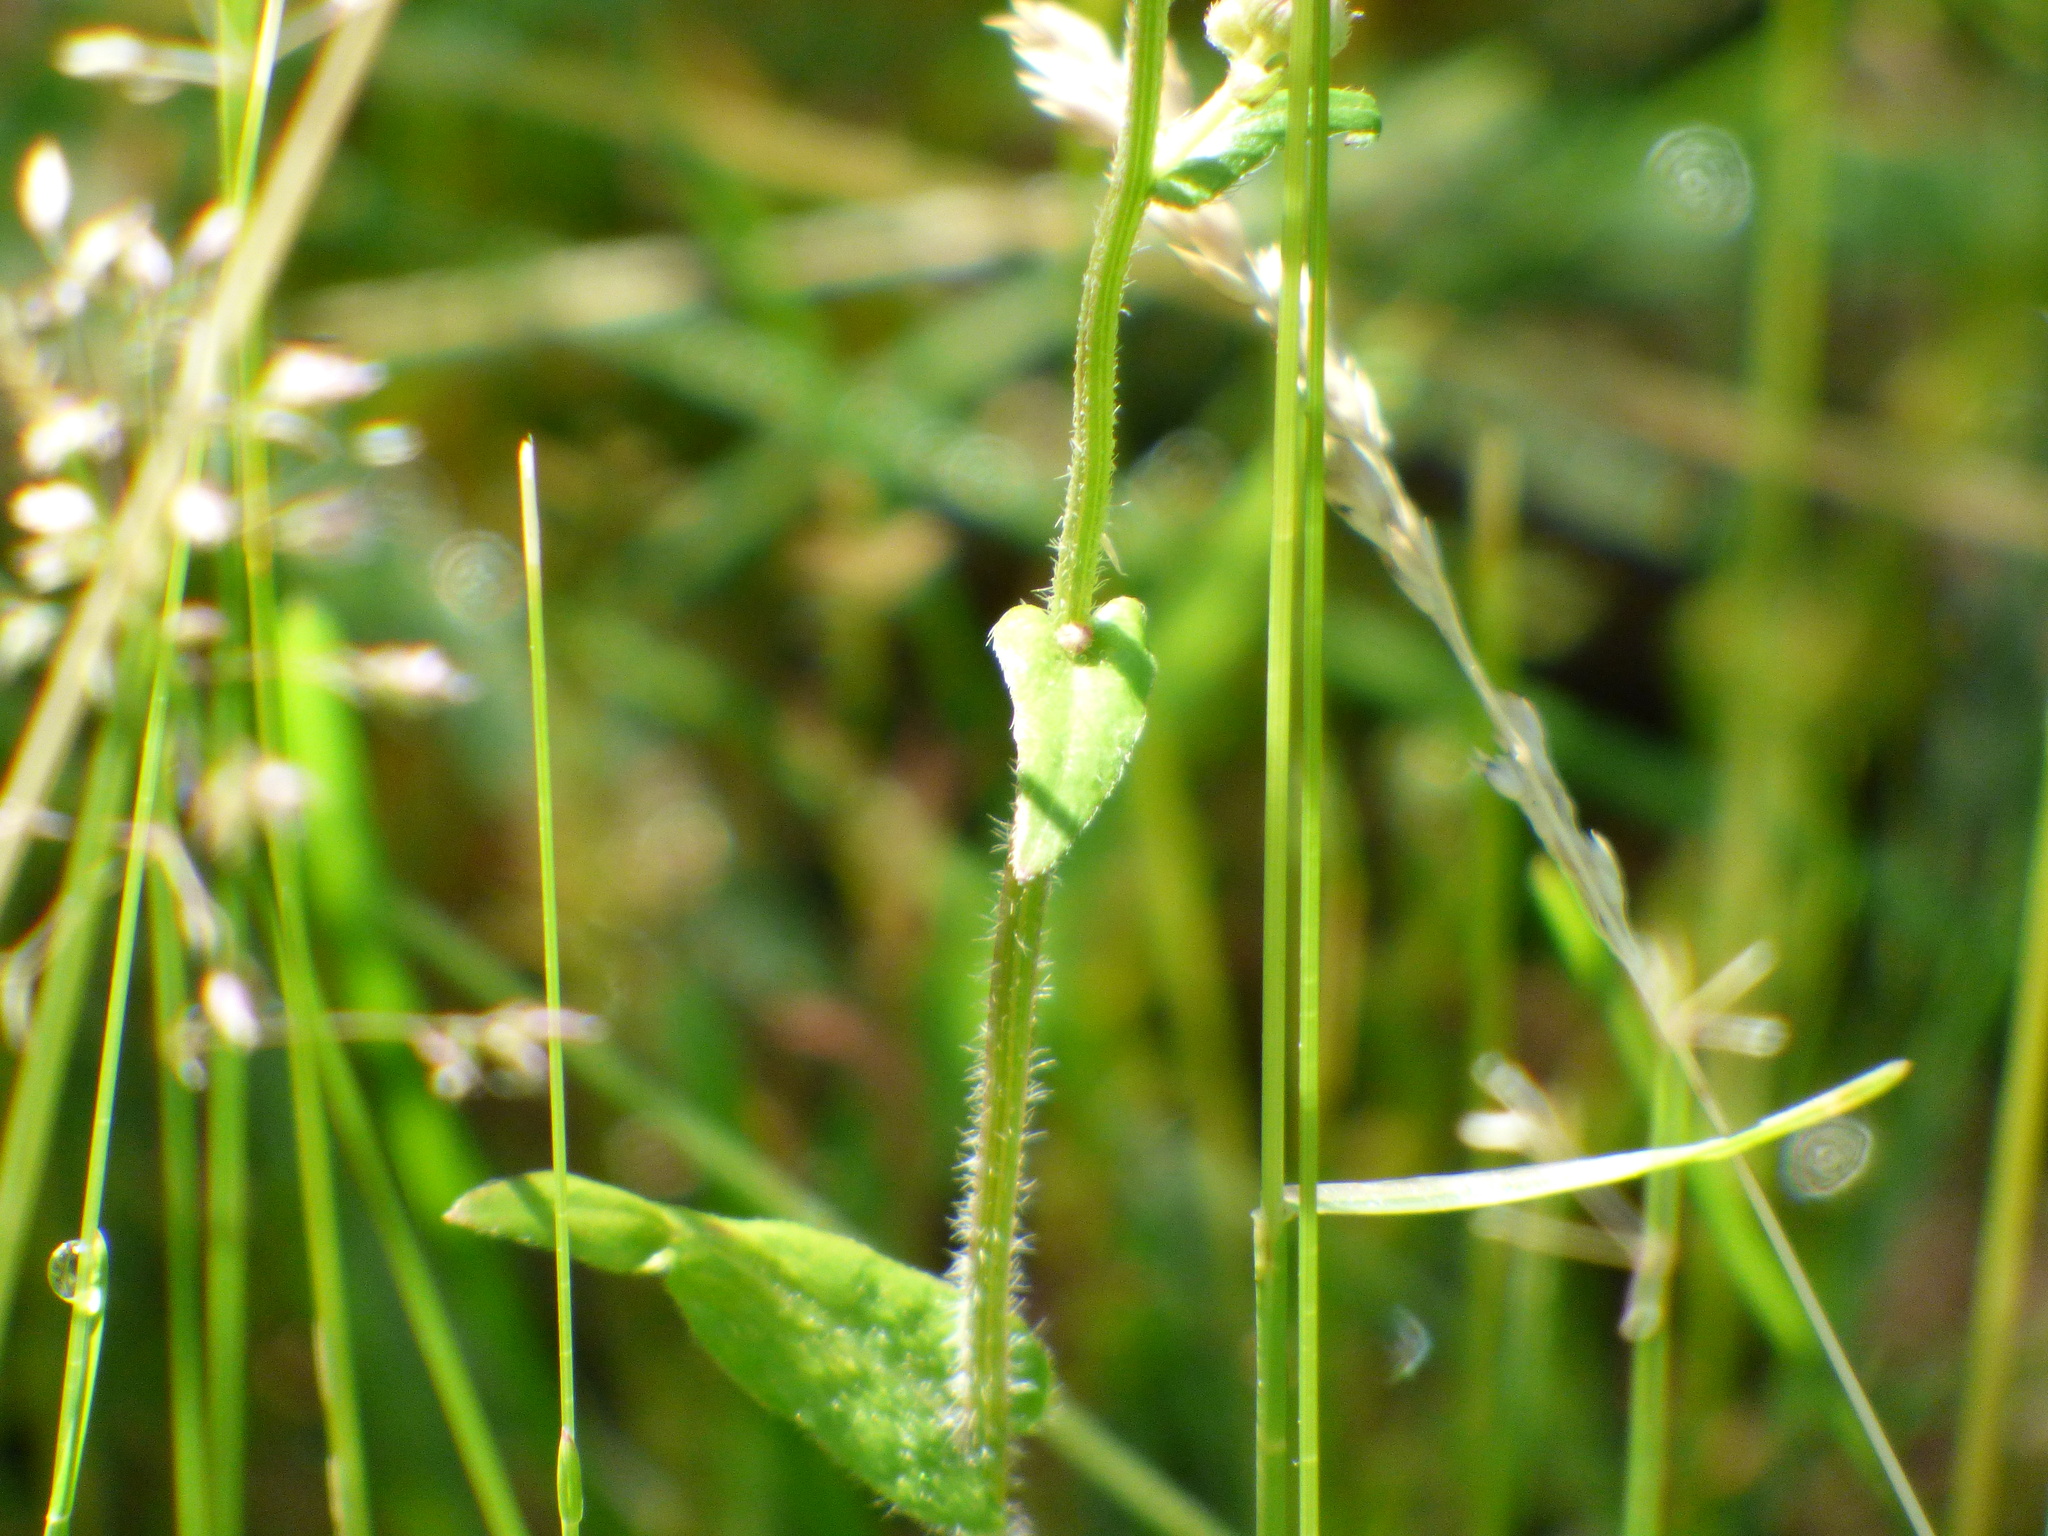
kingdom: Plantae
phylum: Tracheophyta
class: Magnoliopsida
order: Asterales
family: Asteraceae
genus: Erigeron
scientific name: Erigeron philadelphicus
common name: Robin's-plantain
